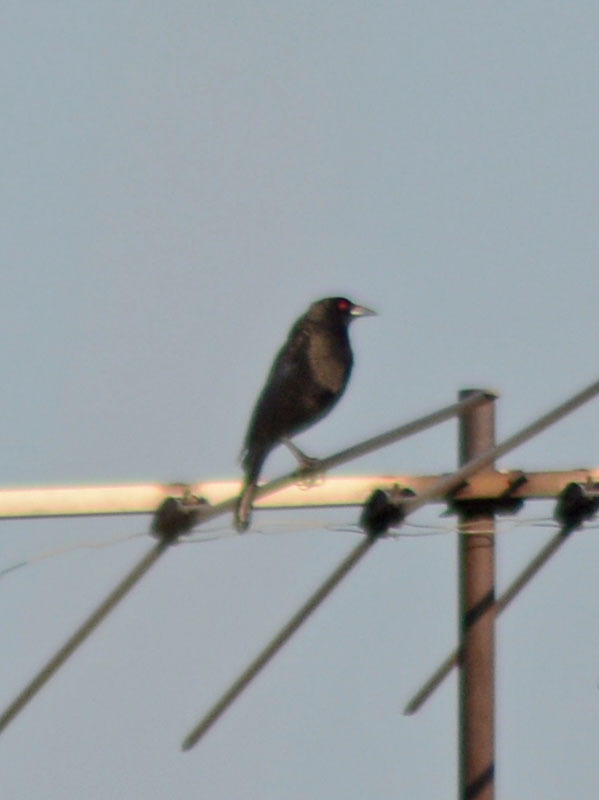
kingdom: Animalia
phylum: Chordata
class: Aves
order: Passeriformes
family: Icteridae
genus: Molothrus
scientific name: Molothrus aeneus
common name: Bronzed cowbird
